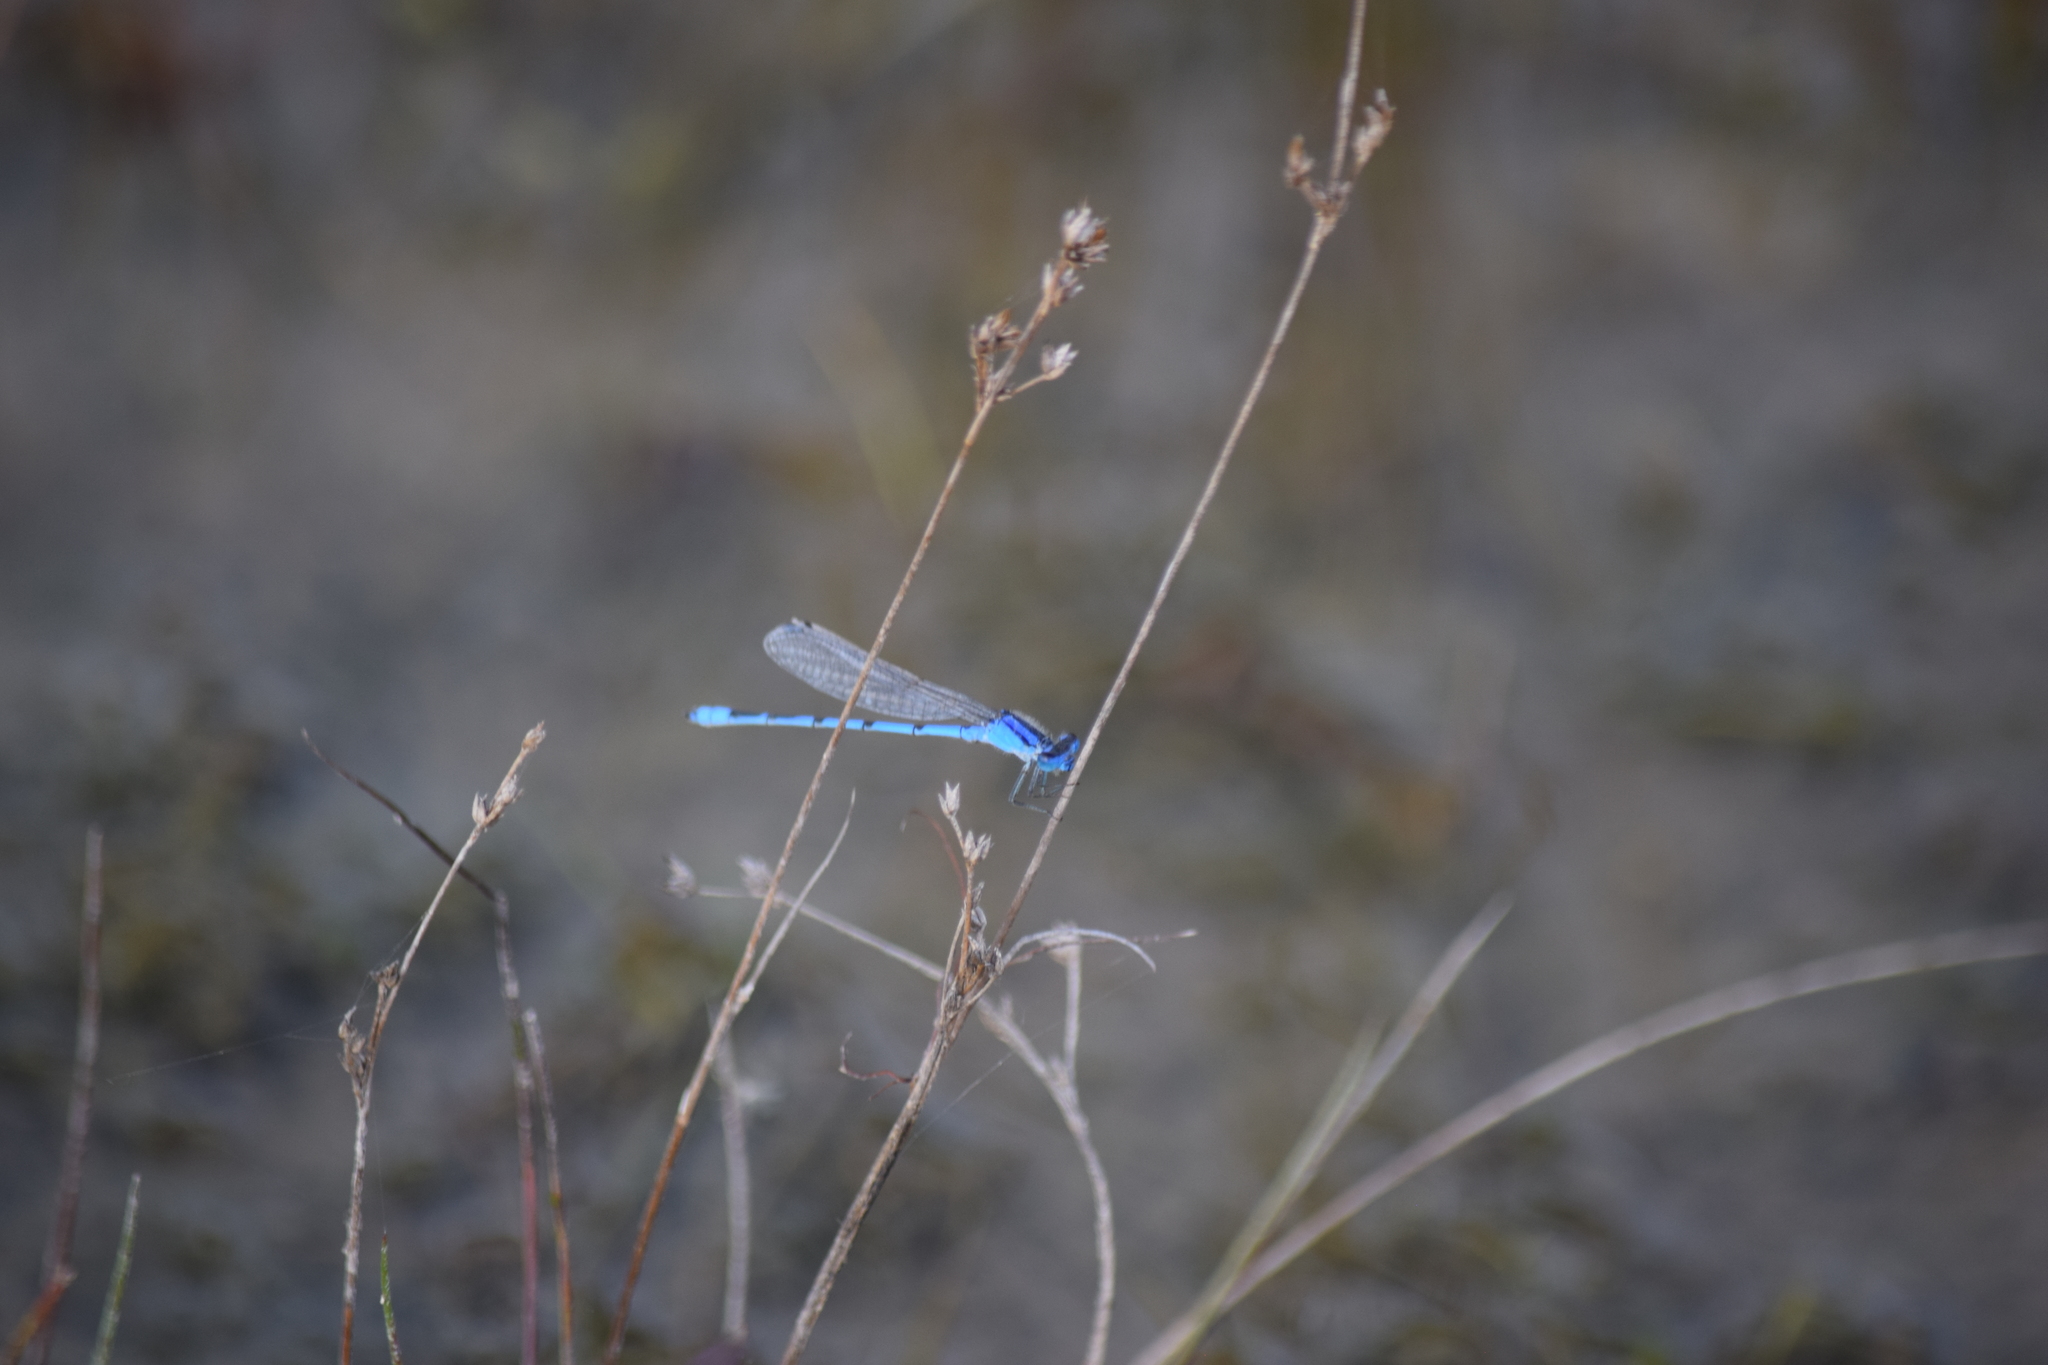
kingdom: Animalia
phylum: Arthropoda
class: Insecta
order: Odonata
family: Coenagrionidae
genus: Enallagma
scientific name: Enallagma civile
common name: Damselfly
